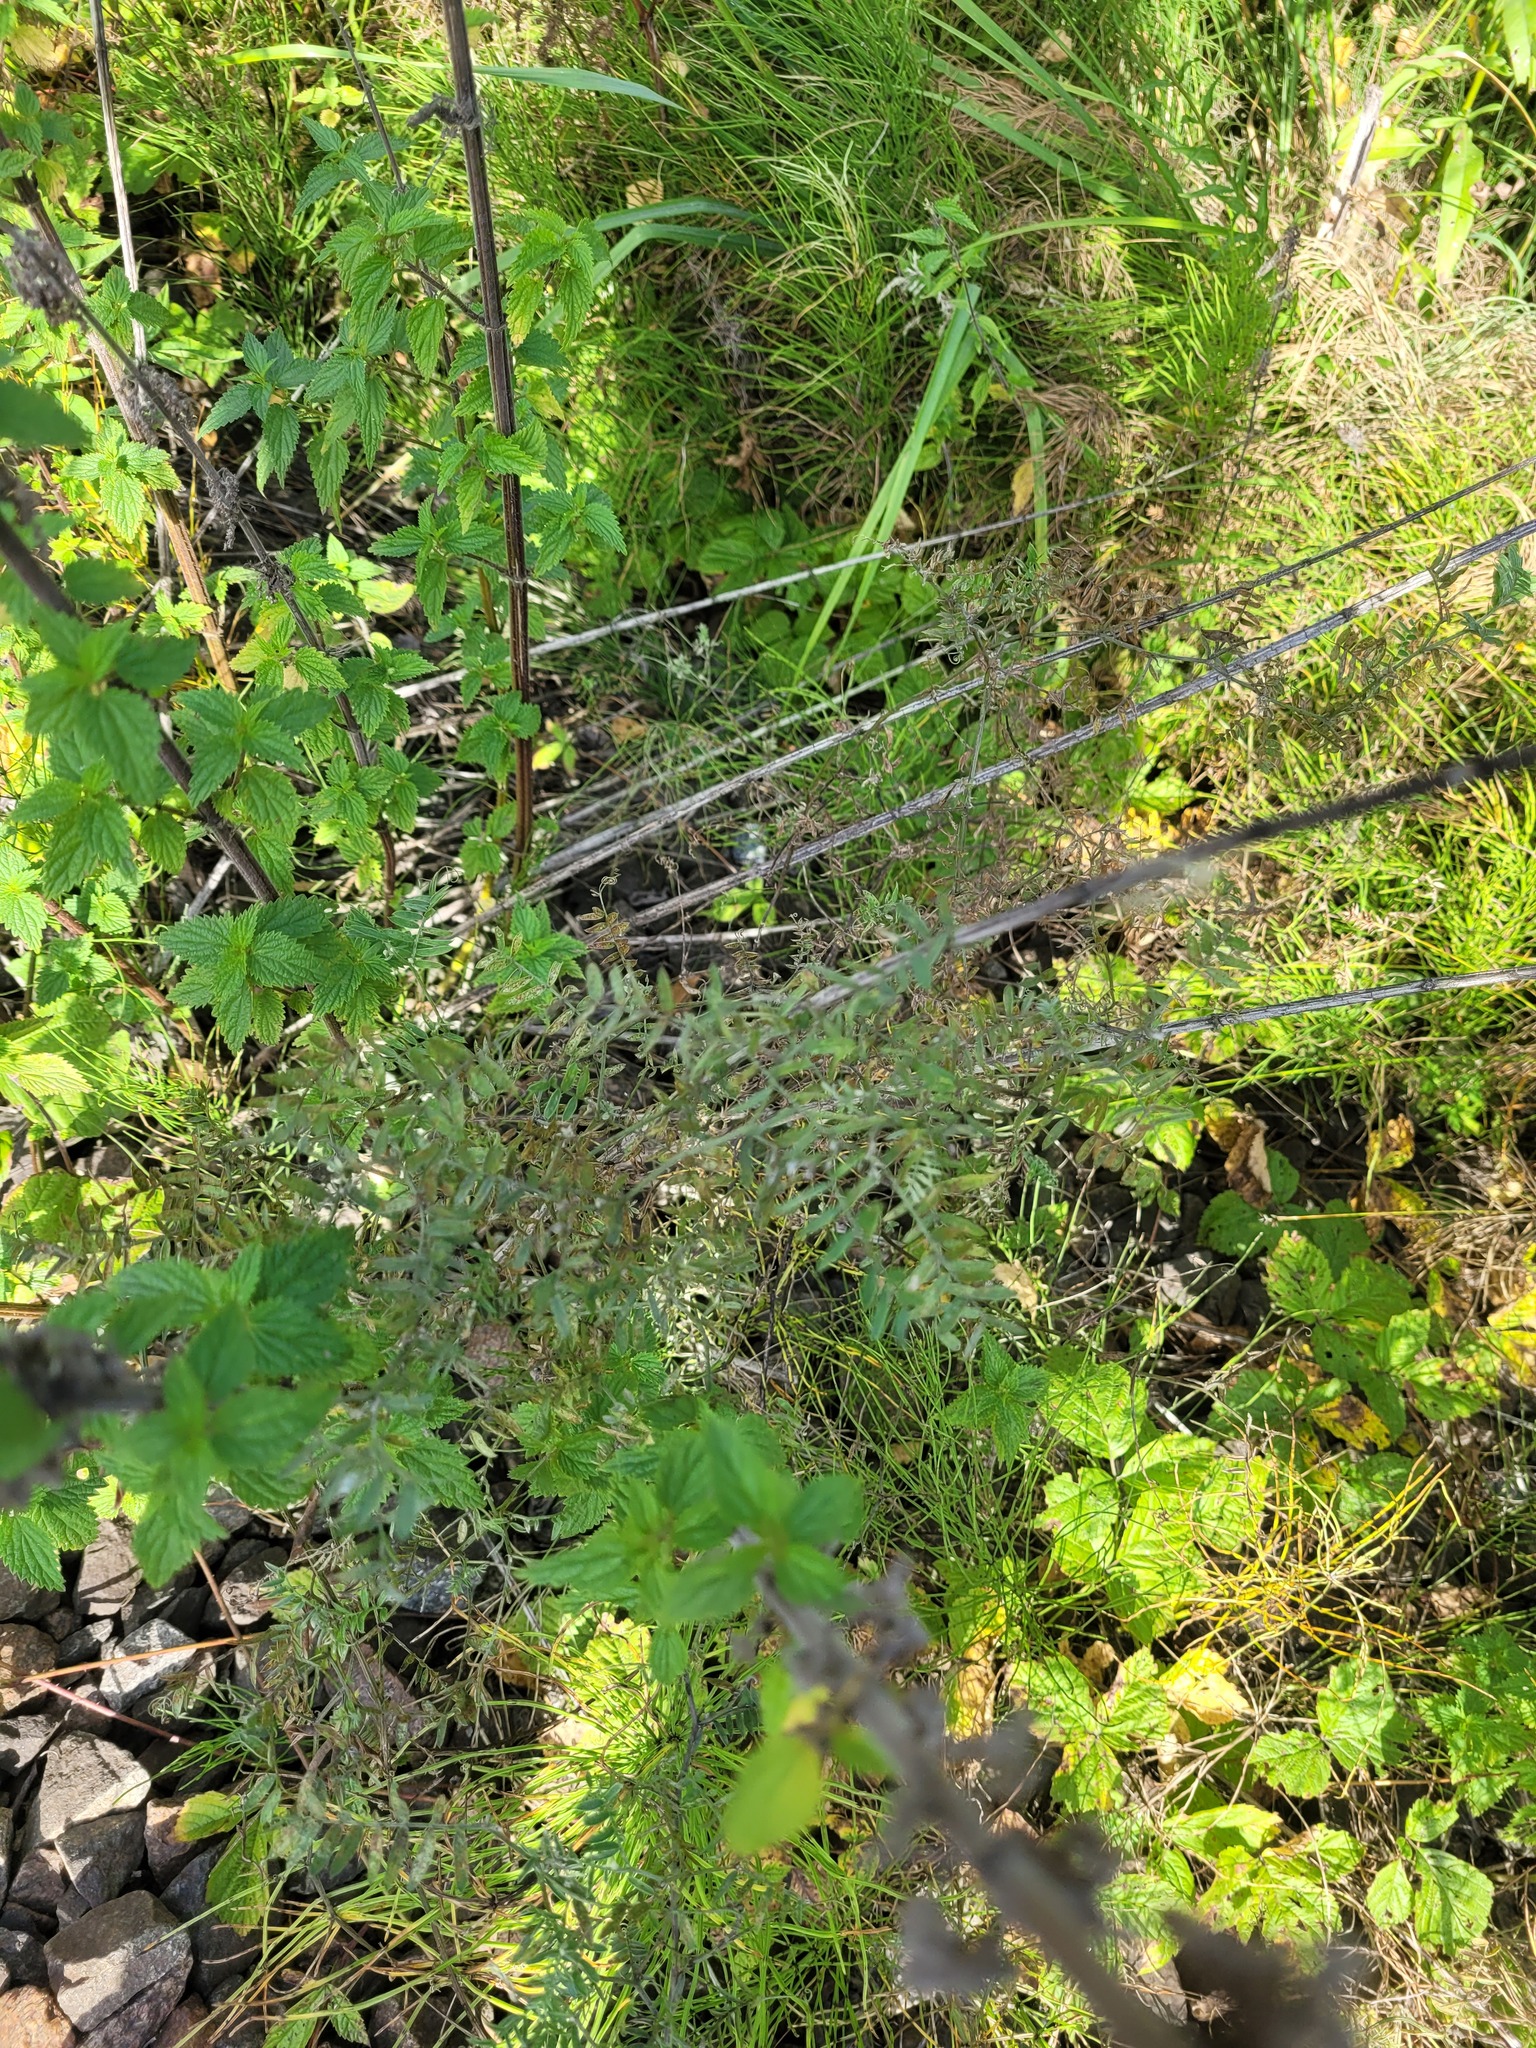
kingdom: Plantae
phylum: Tracheophyta
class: Magnoliopsida
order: Fabales
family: Fabaceae
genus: Vicia
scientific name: Vicia cracca
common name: Bird vetch
